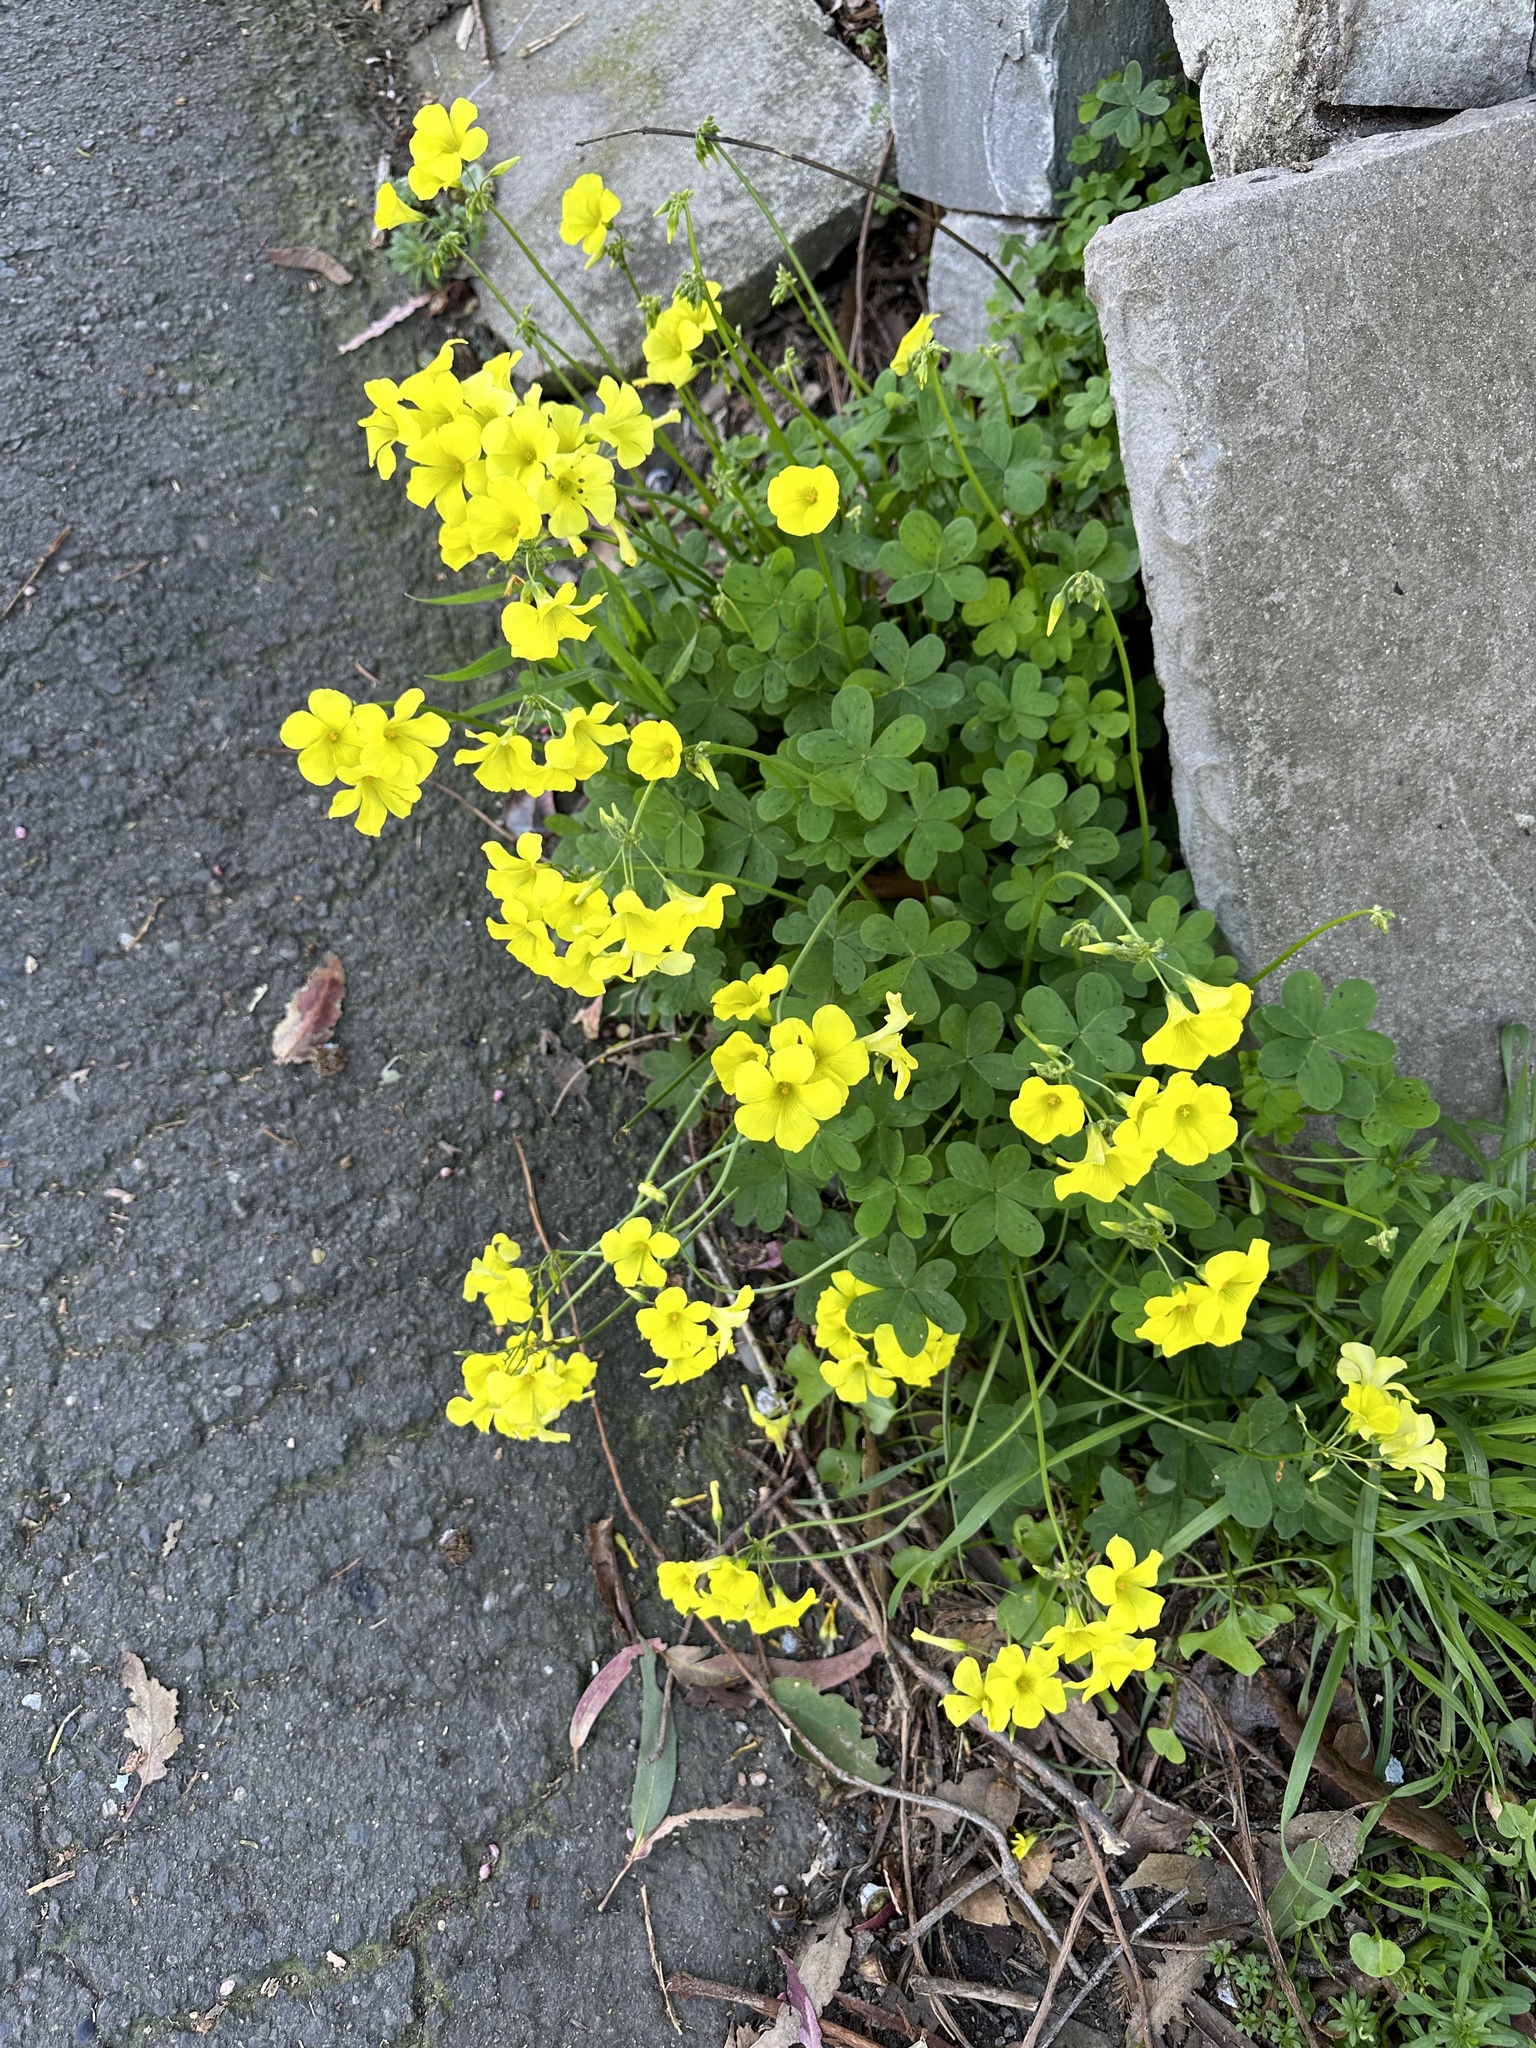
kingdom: Plantae
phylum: Tracheophyta
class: Magnoliopsida
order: Oxalidales
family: Oxalidaceae
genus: Oxalis
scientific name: Oxalis pes-caprae
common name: Bermuda-buttercup
